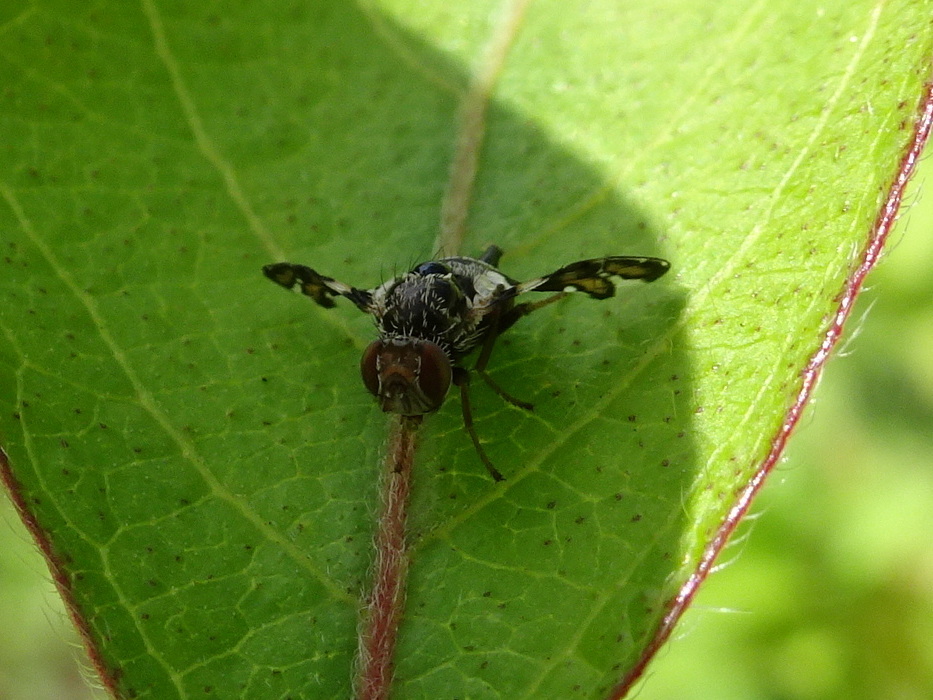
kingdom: Animalia
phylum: Arthropoda
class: Insecta
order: Diptera
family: Tephritidae
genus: Procecidochares
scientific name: Procecidochares atra
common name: Goldenrod brussels sprout gall fly
